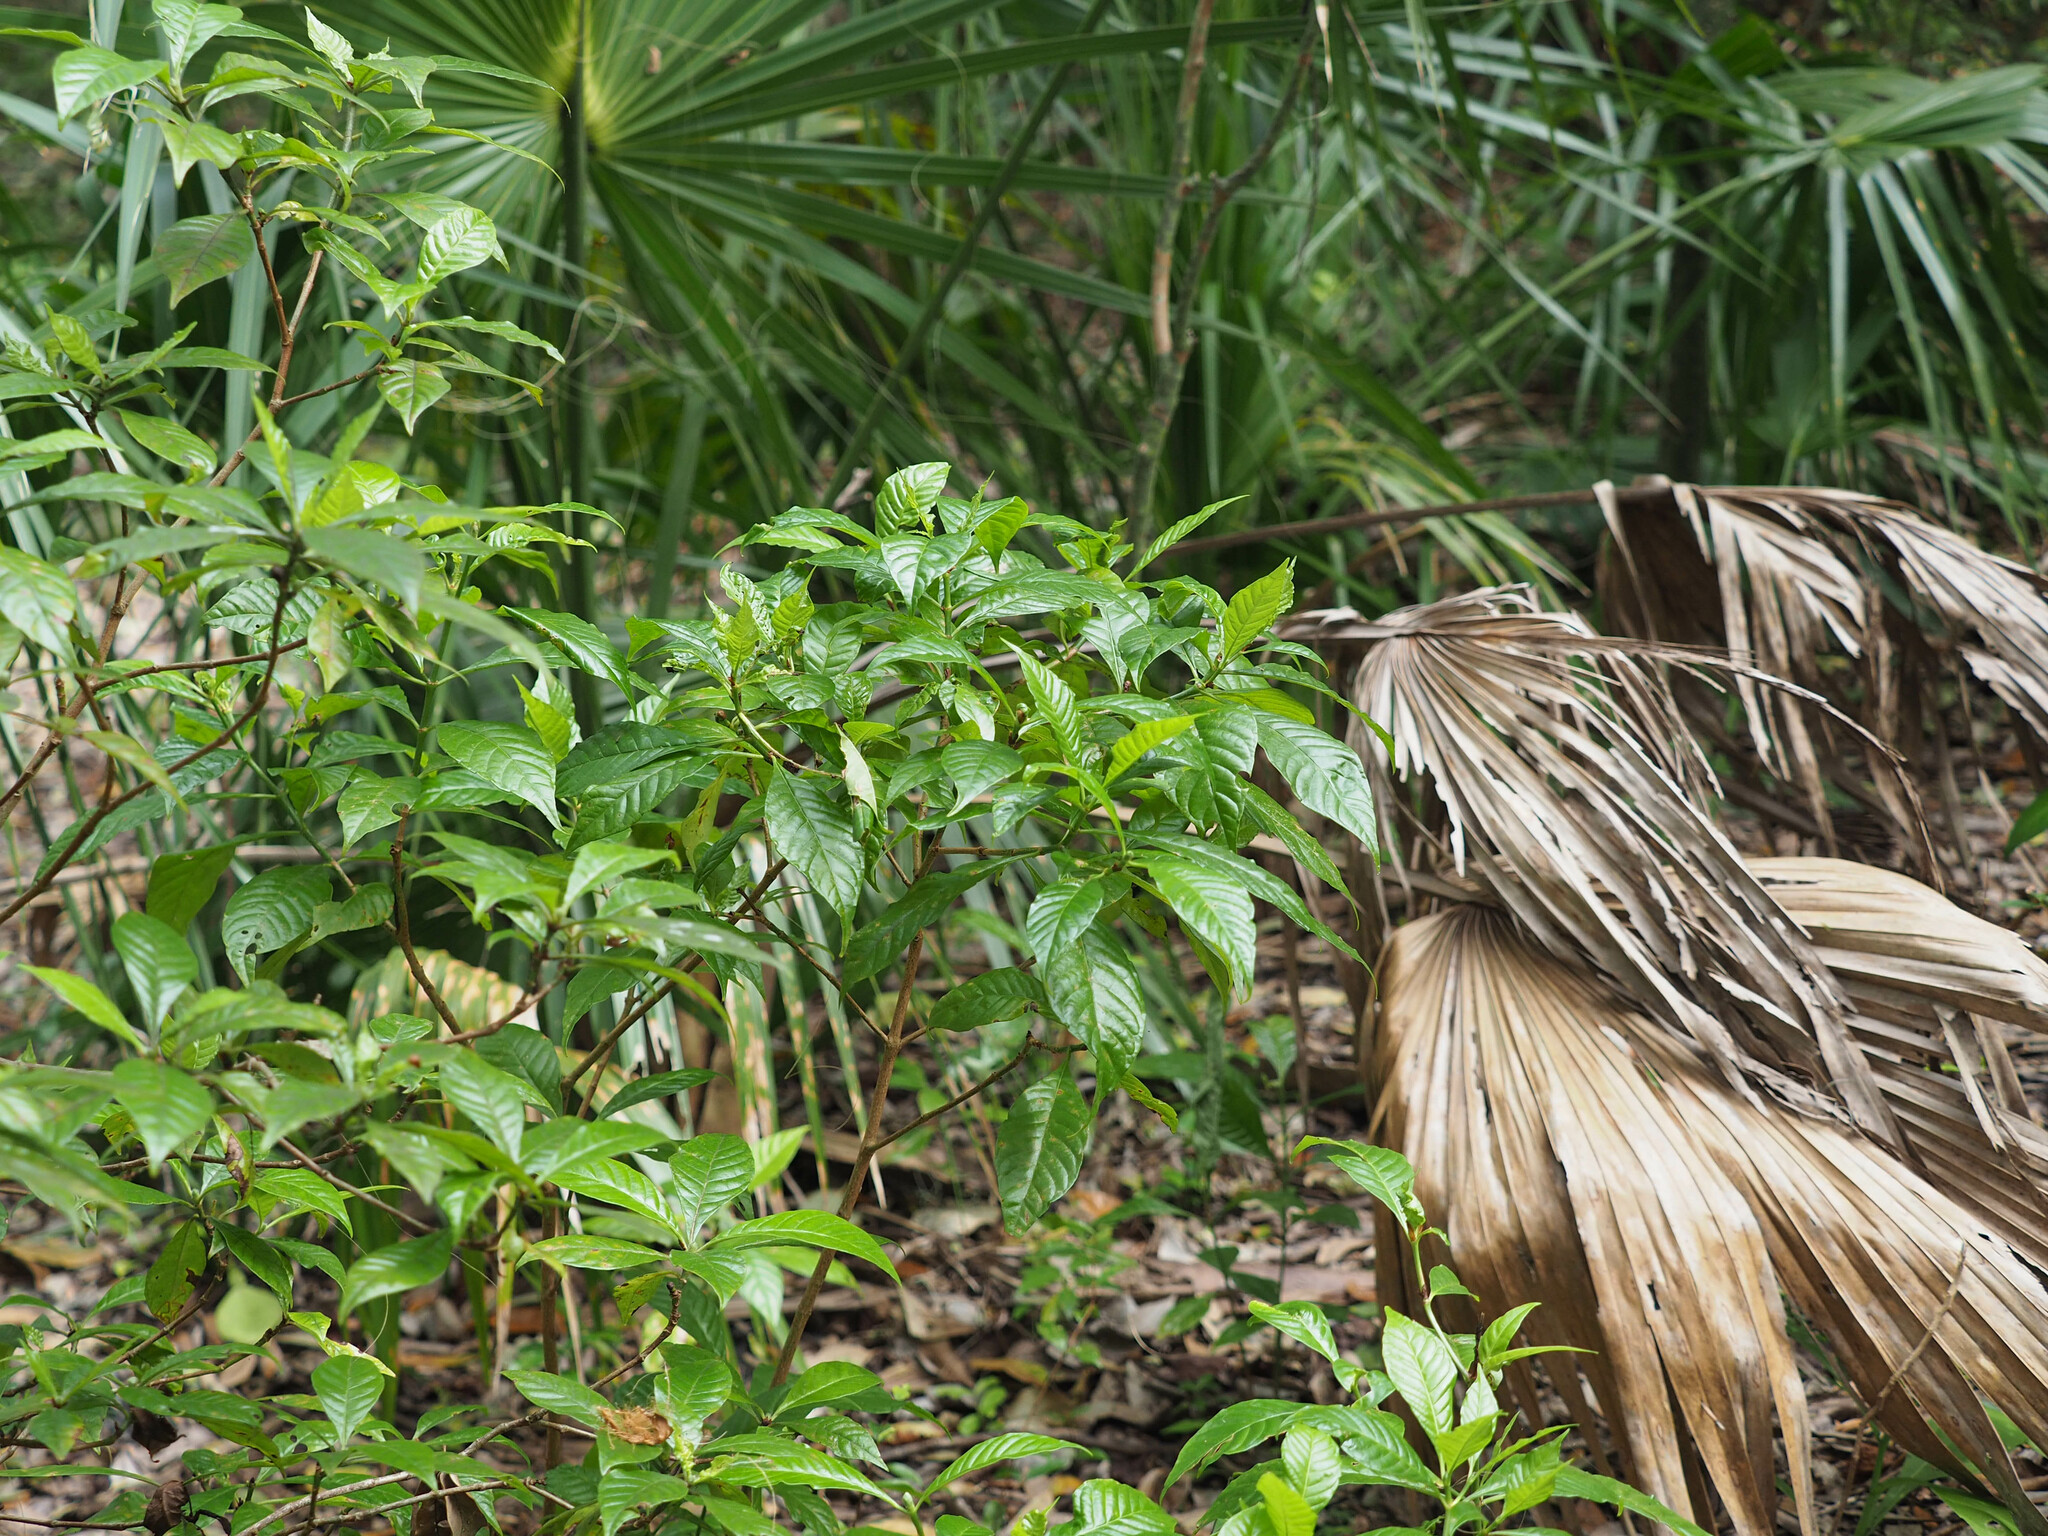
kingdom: Plantae
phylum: Tracheophyta
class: Magnoliopsida
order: Gentianales
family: Rubiaceae
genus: Psychotria
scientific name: Psychotria nervosa
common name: Bastard cankerberry
